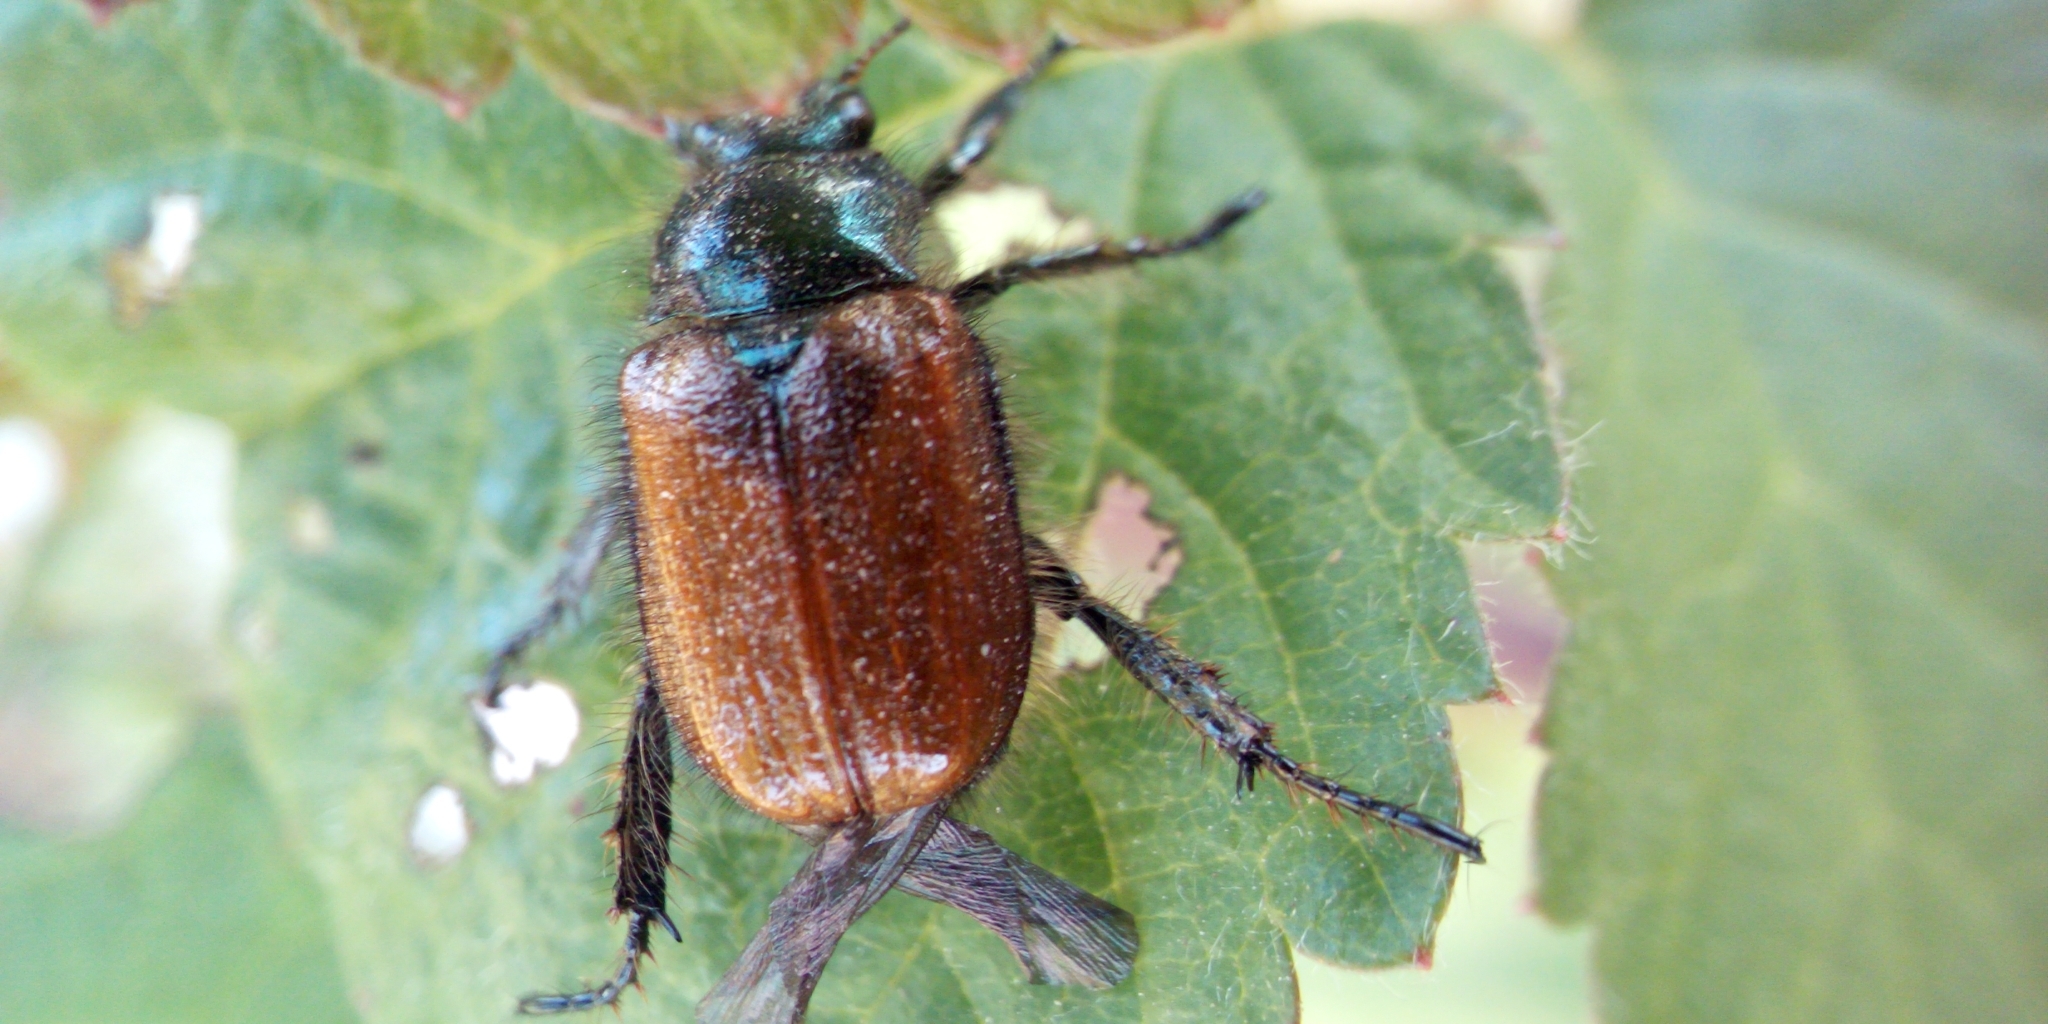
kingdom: Animalia
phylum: Arthropoda
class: Insecta
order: Coleoptera
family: Scarabaeidae
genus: Phyllopertha
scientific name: Phyllopertha horticola
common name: Garden chafer
